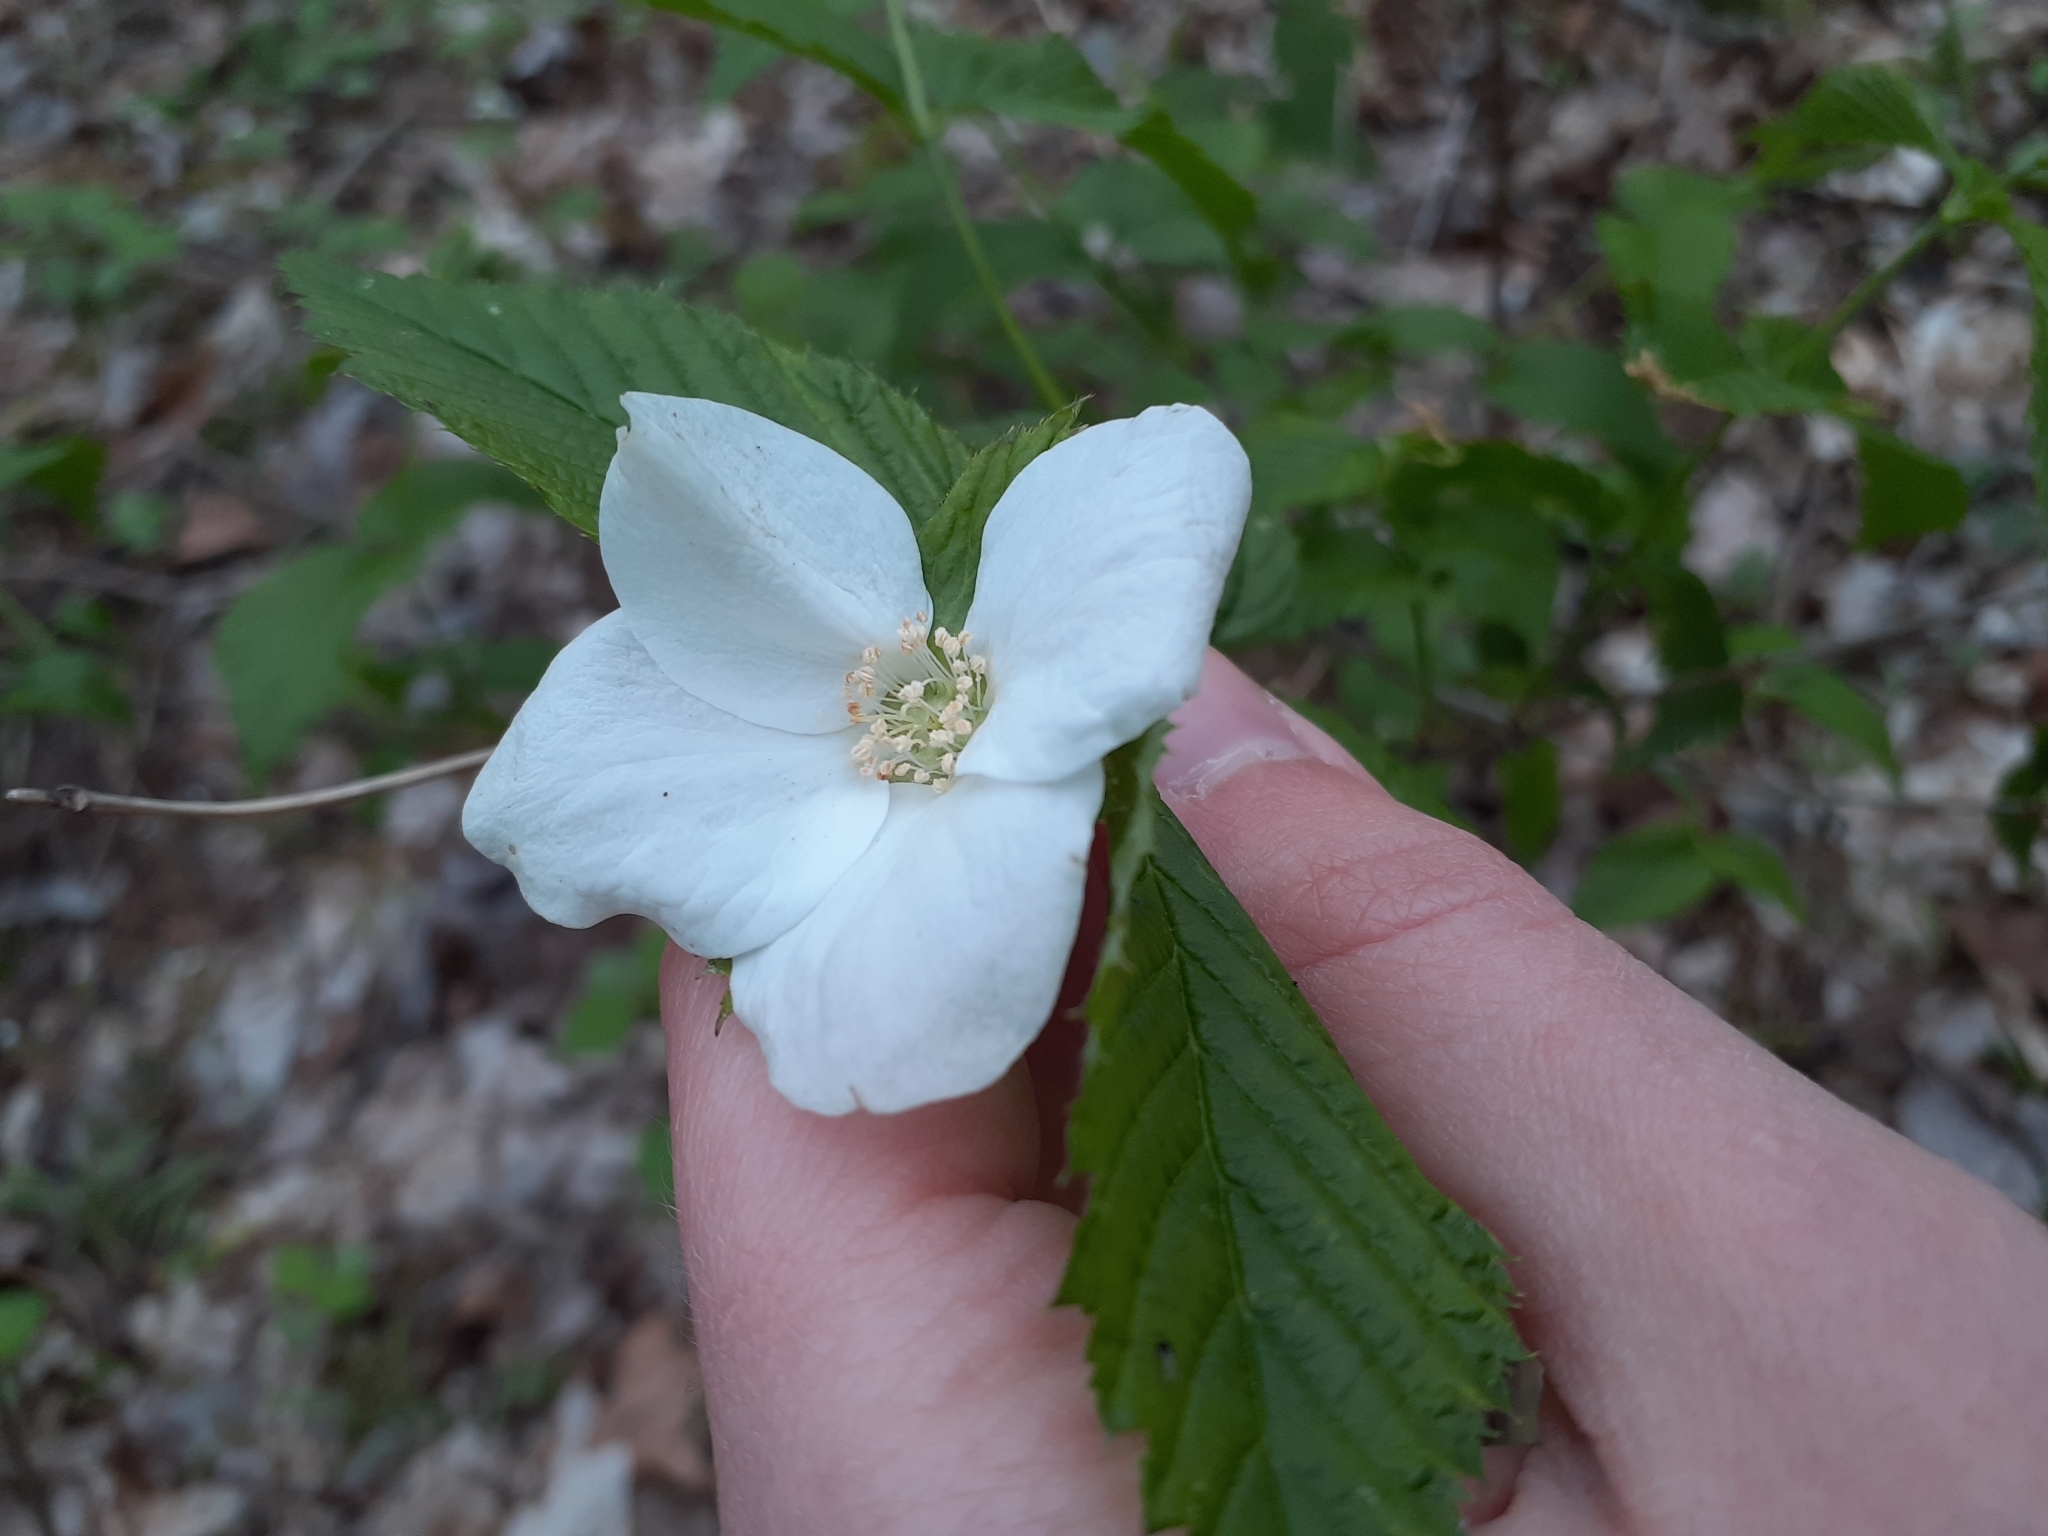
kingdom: Plantae
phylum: Tracheophyta
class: Magnoliopsida
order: Rosales
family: Rosaceae
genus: Rhodotypos
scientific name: Rhodotypos scandens
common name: Jetbead
